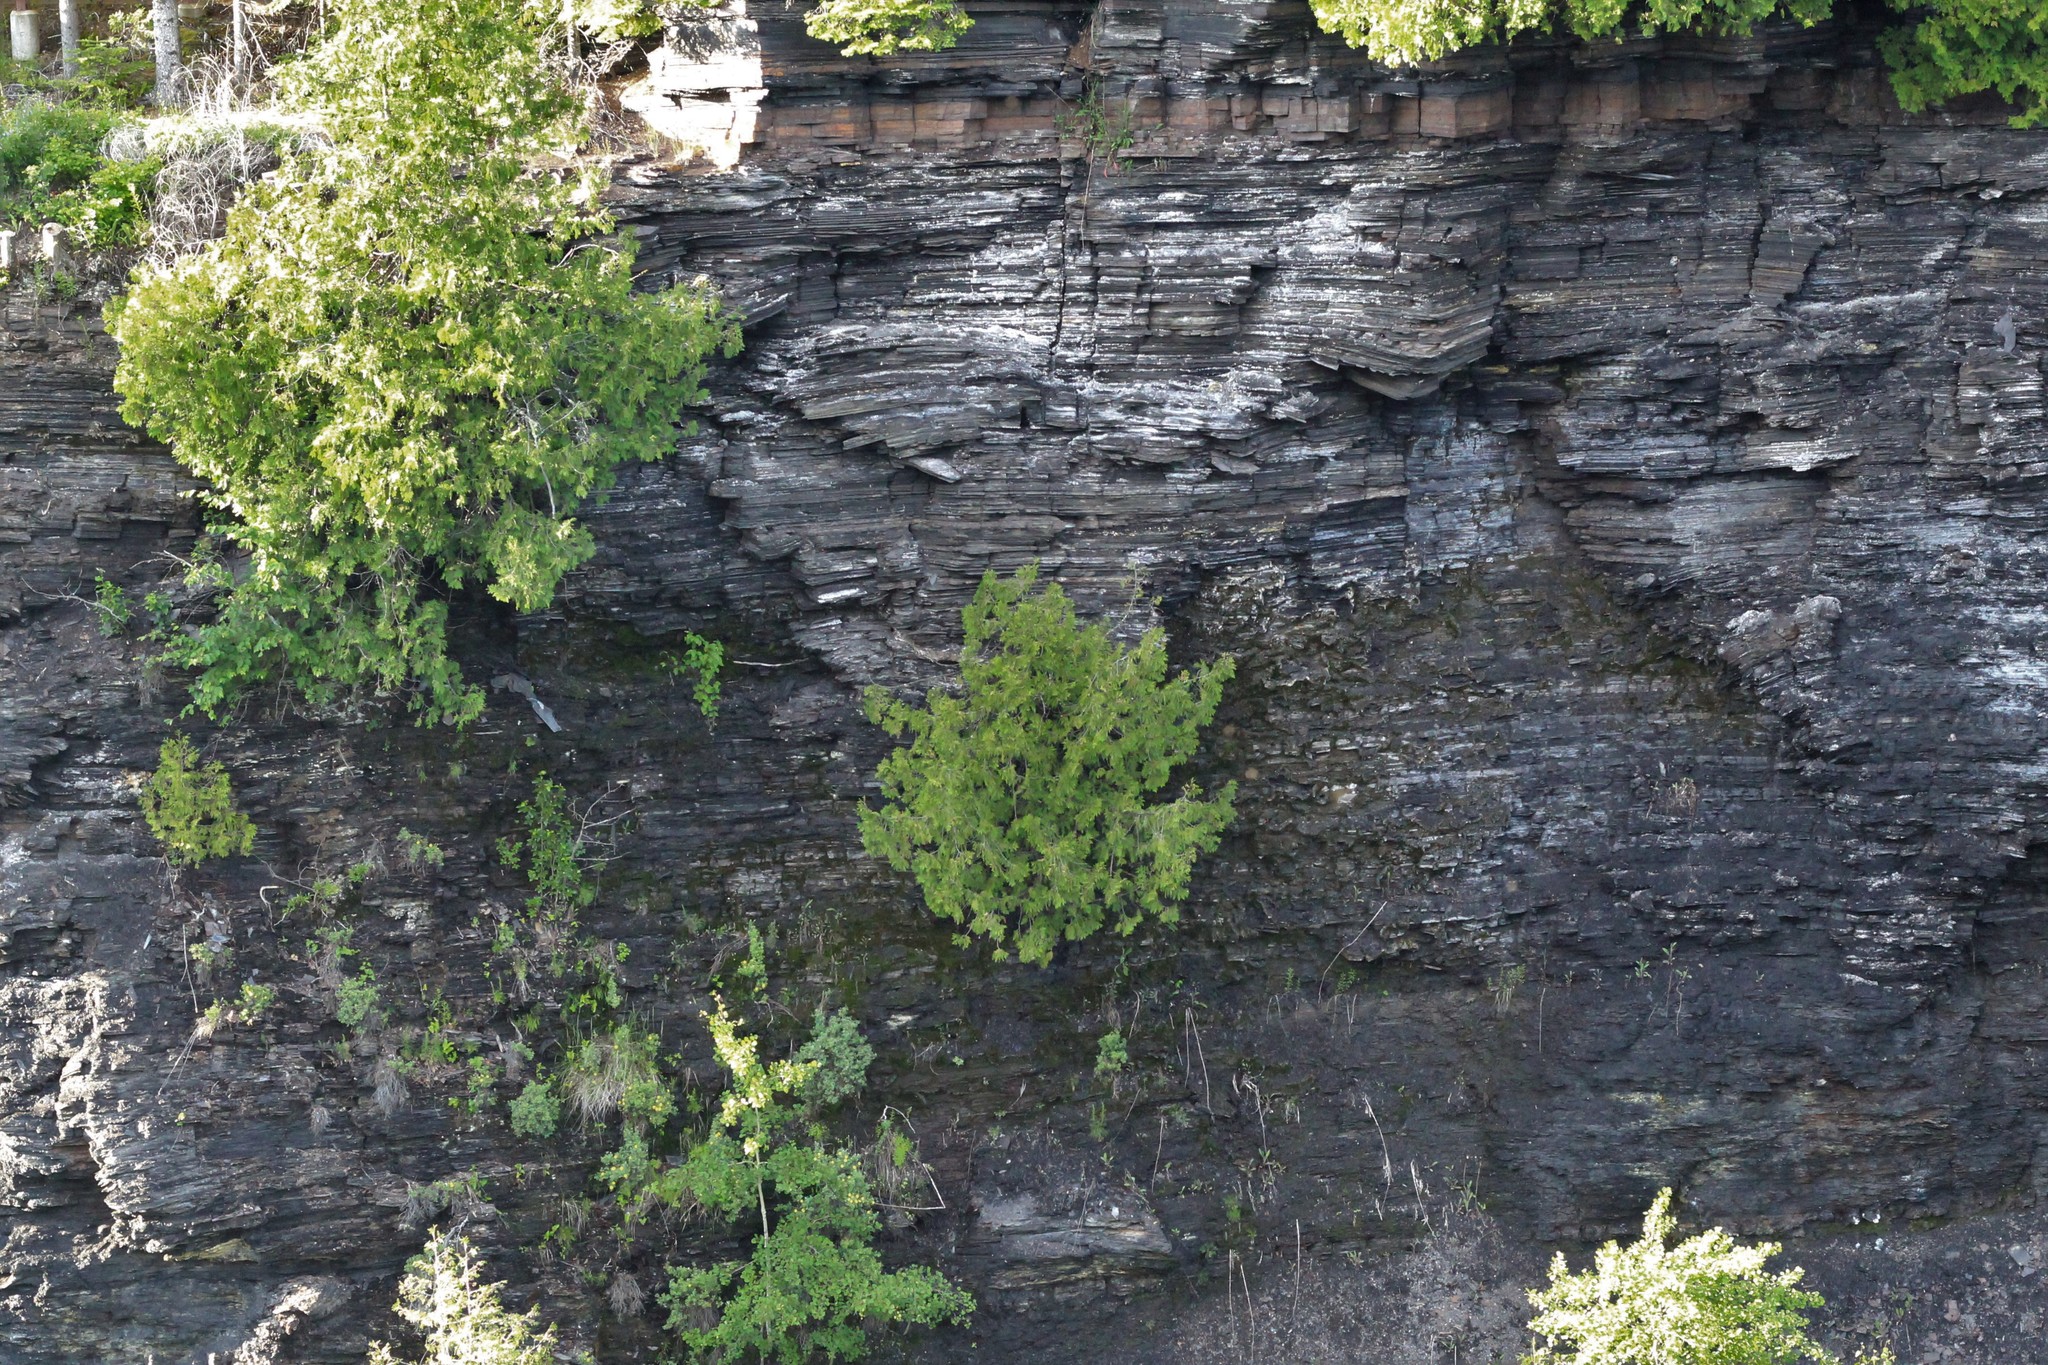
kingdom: Plantae
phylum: Tracheophyta
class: Pinopsida
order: Pinales
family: Cupressaceae
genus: Thuja
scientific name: Thuja occidentalis
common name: Northern white-cedar
